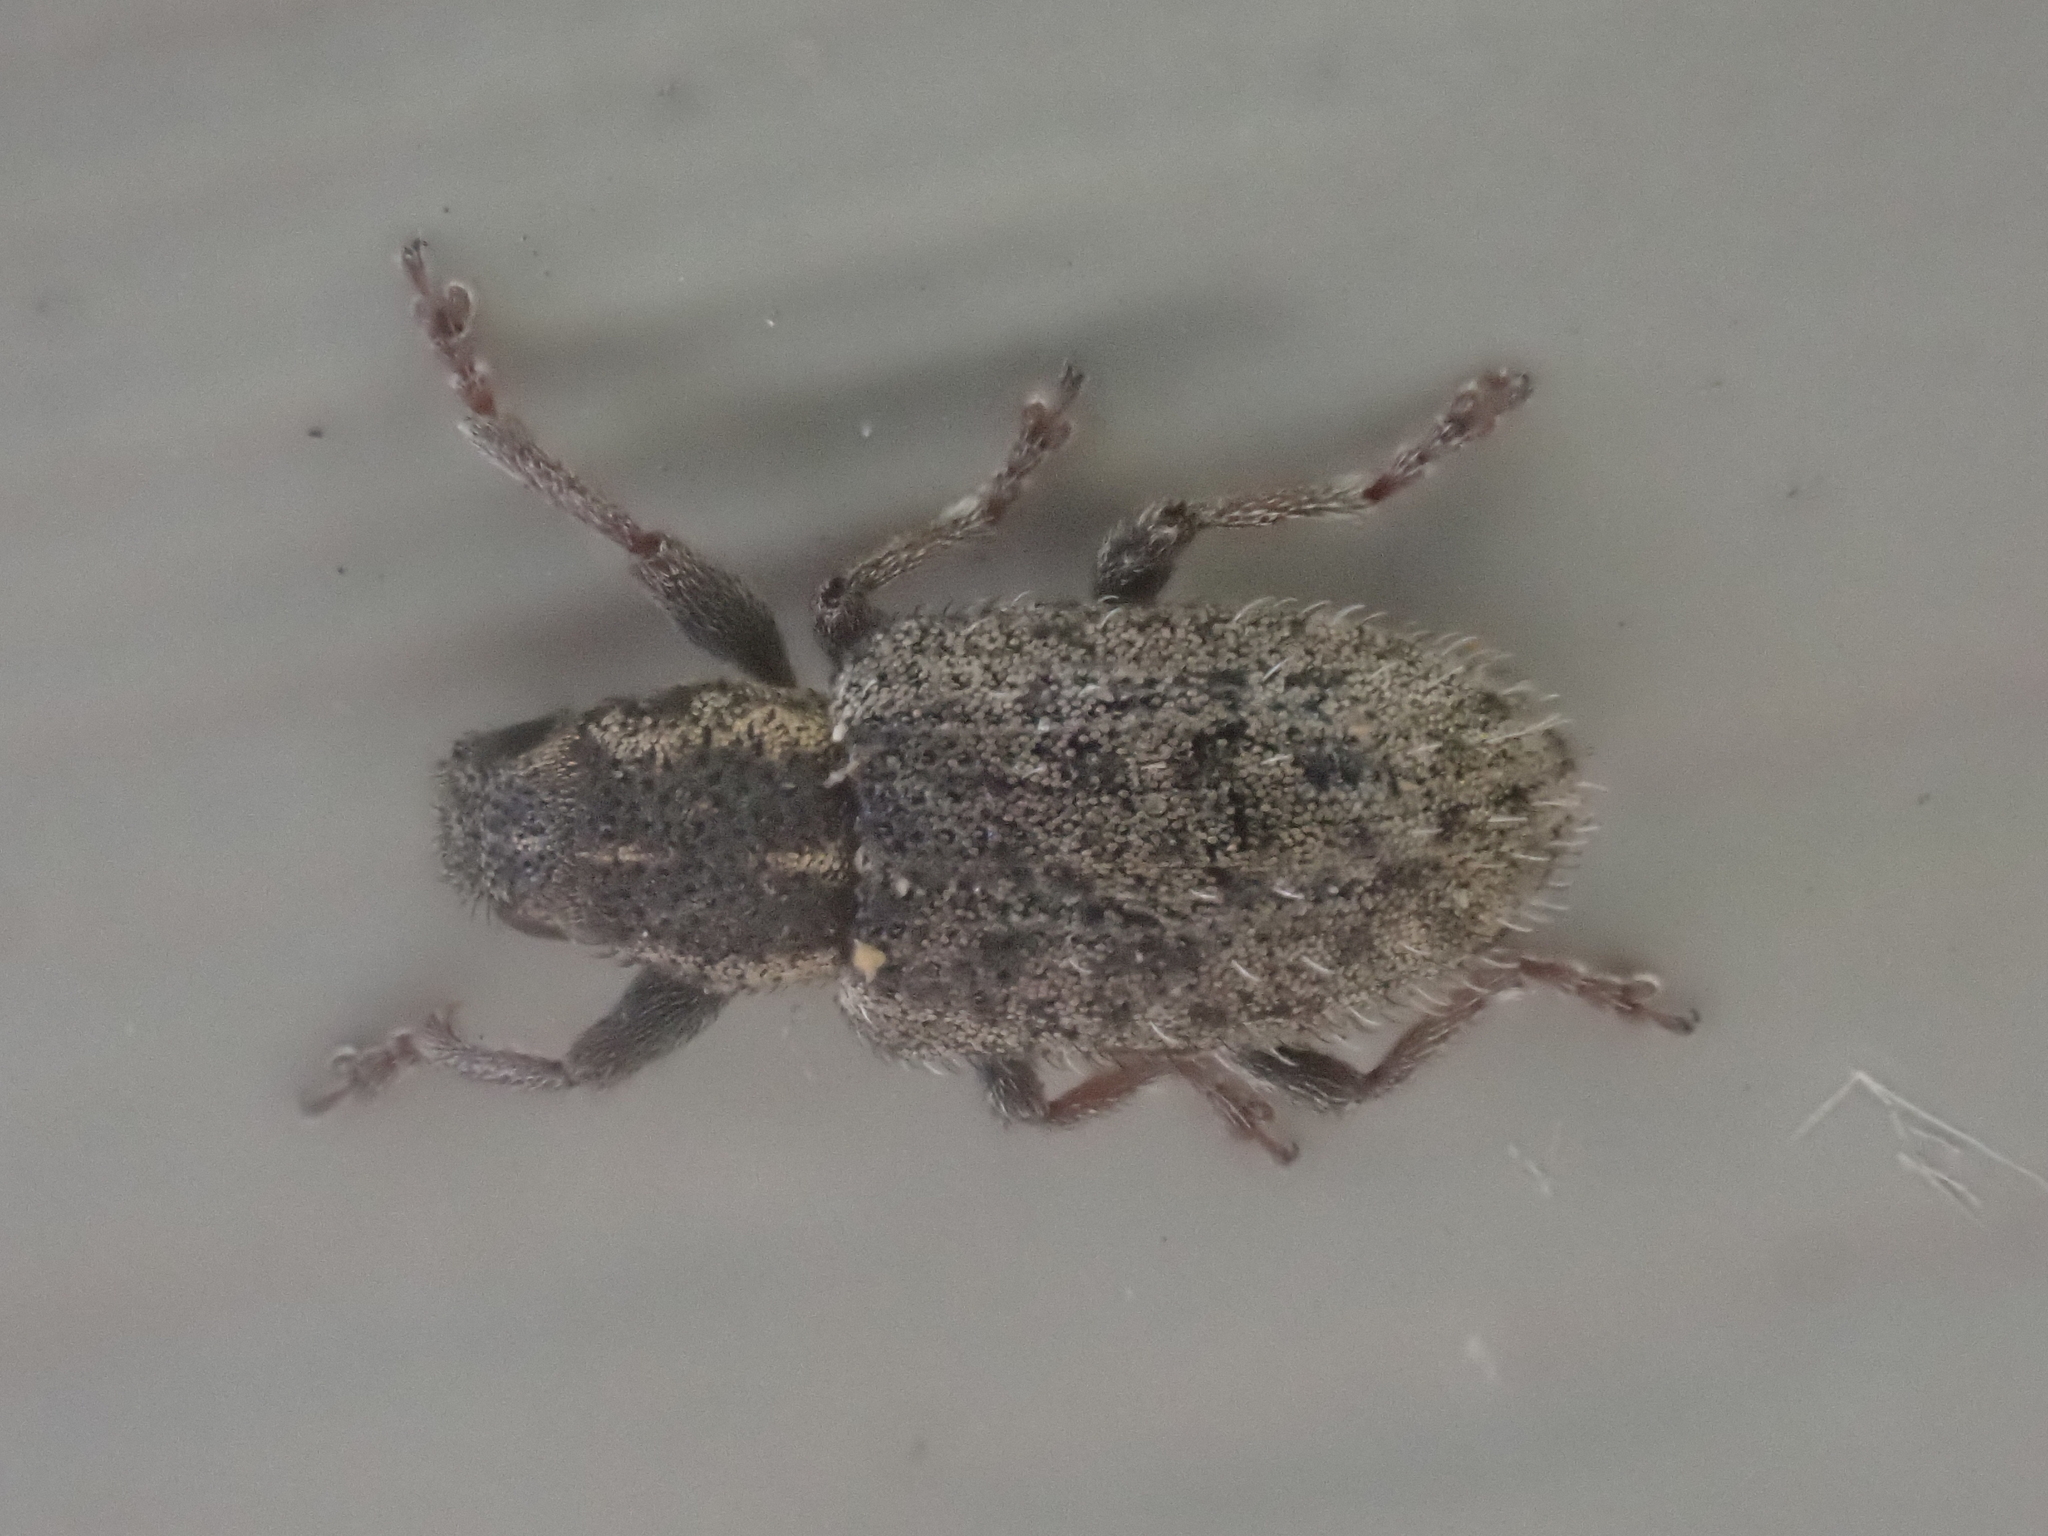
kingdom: Animalia
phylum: Arthropoda
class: Insecta
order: Coleoptera
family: Curculionidae
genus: Sitona
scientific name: Sitona hispidulus
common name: Clover weevil
